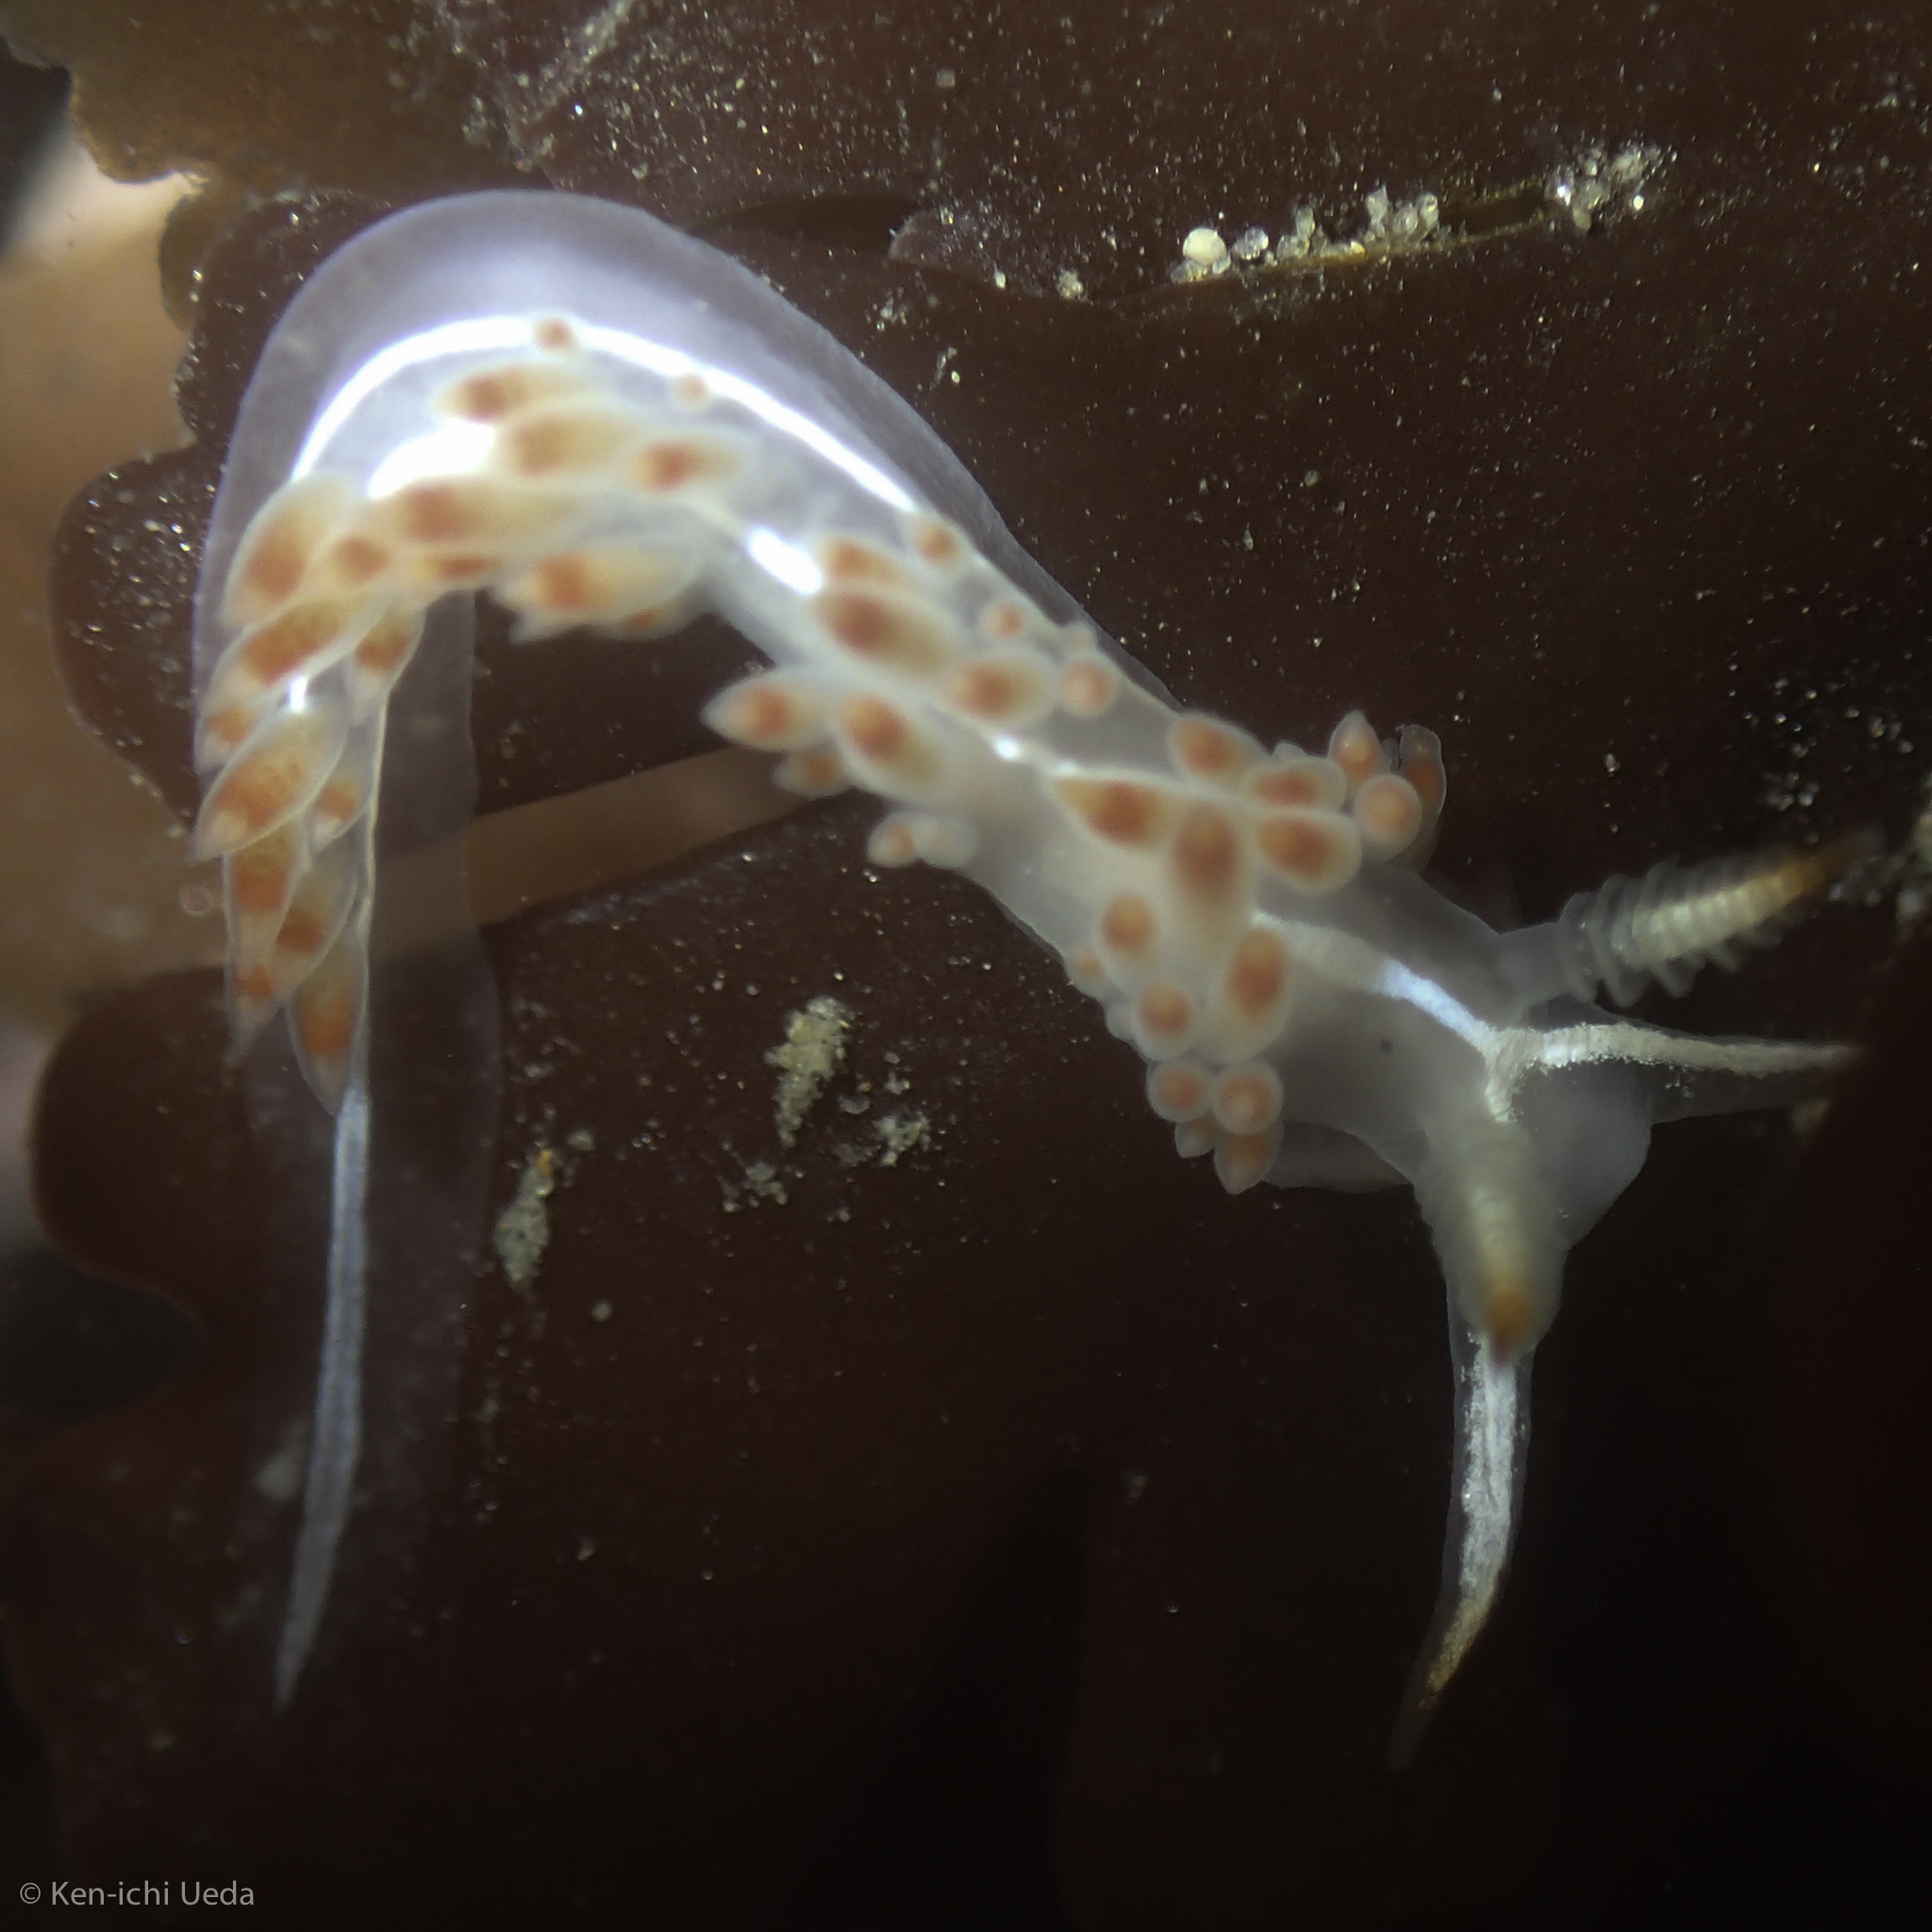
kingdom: Animalia
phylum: Mollusca
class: Gastropoda
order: Nudibranchia
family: Coryphellidae
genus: Coryphella
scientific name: Coryphella trilineata
